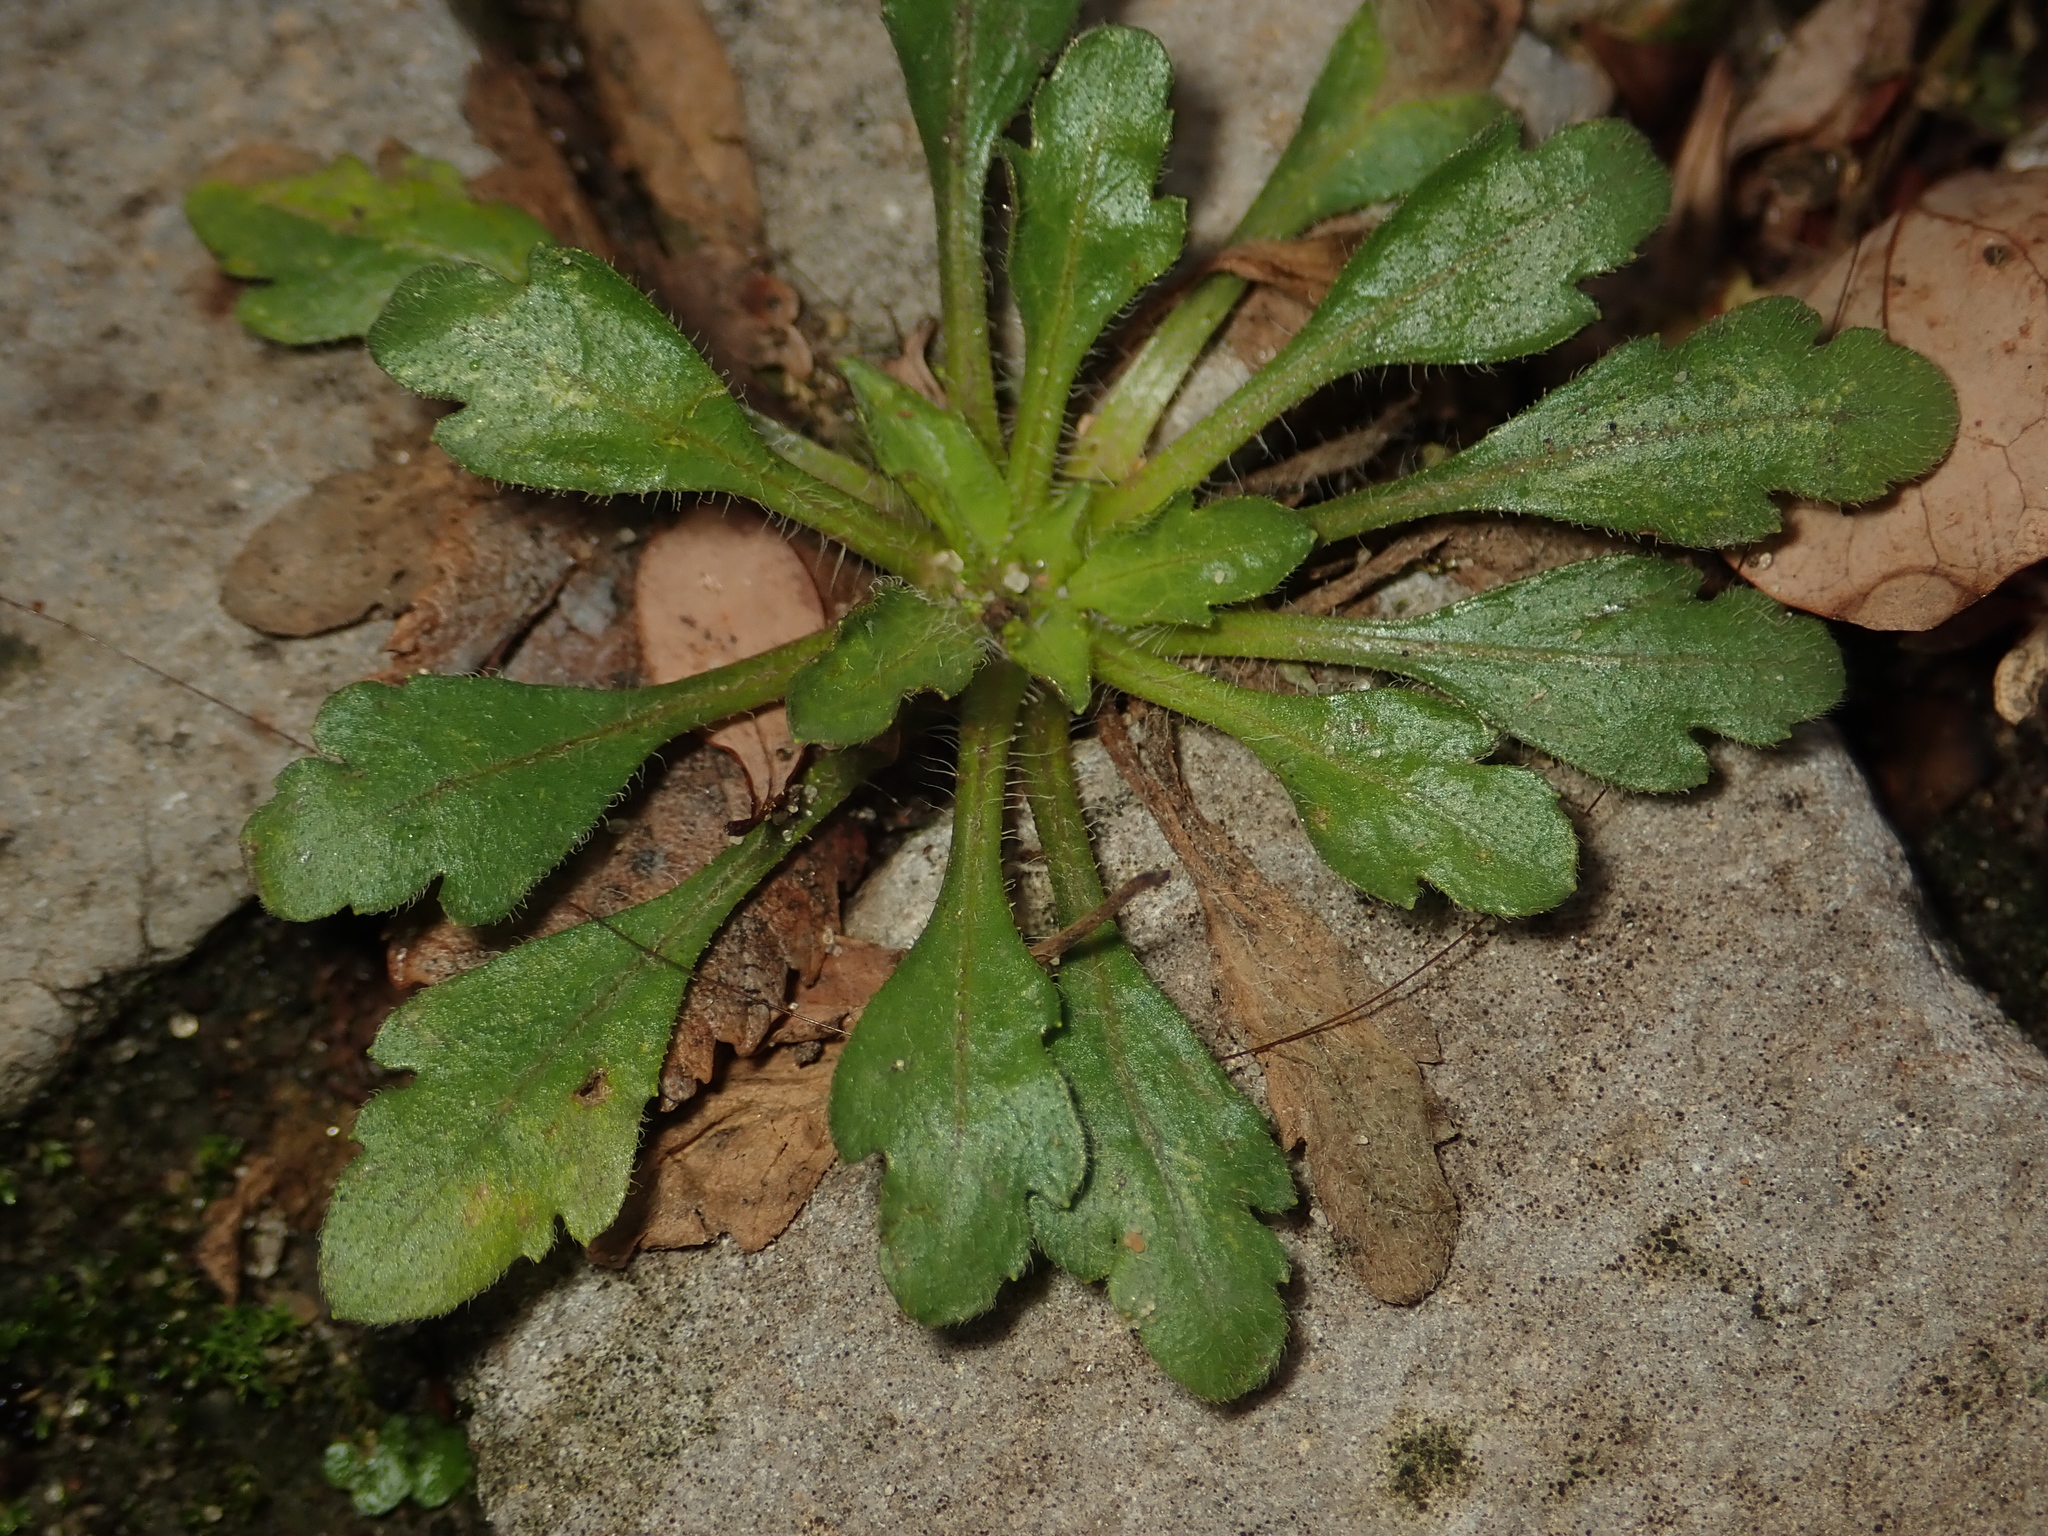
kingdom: Plantae
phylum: Tracheophyta
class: Magnoliopsida
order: Asterales
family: Asteraceae
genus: Erigeron
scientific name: Erigeron canadensis
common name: Canadian fleabane
